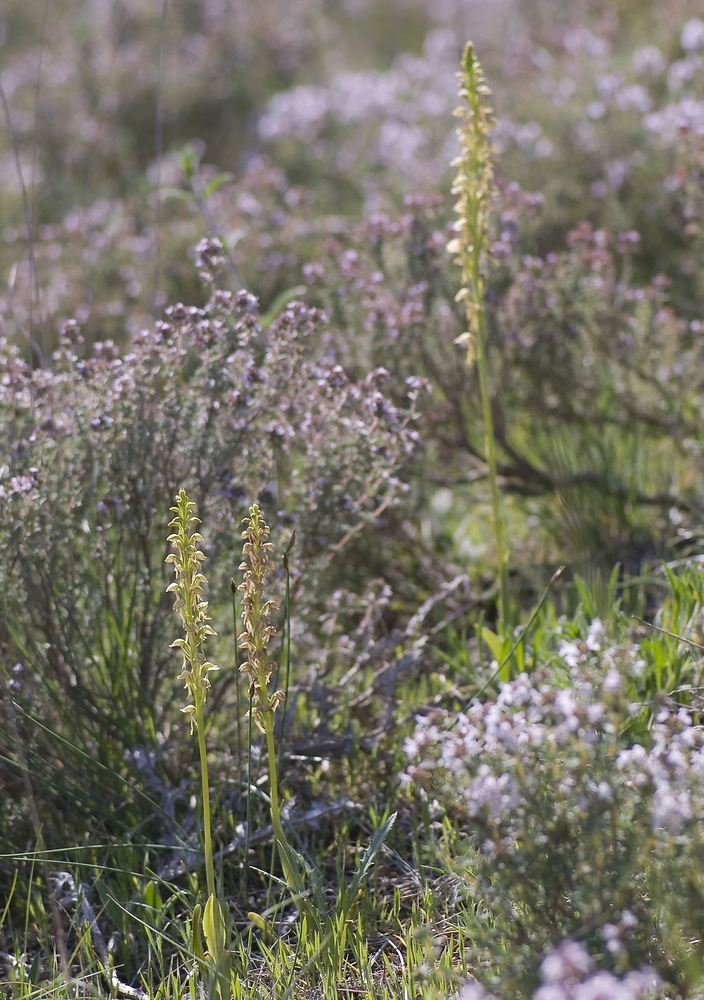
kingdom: Plantae
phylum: Tracheophyta
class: Liliopsida
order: Asparagales
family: Orchidaceae
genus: Orchis
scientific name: Orchis anthropophora
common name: Man orchid
